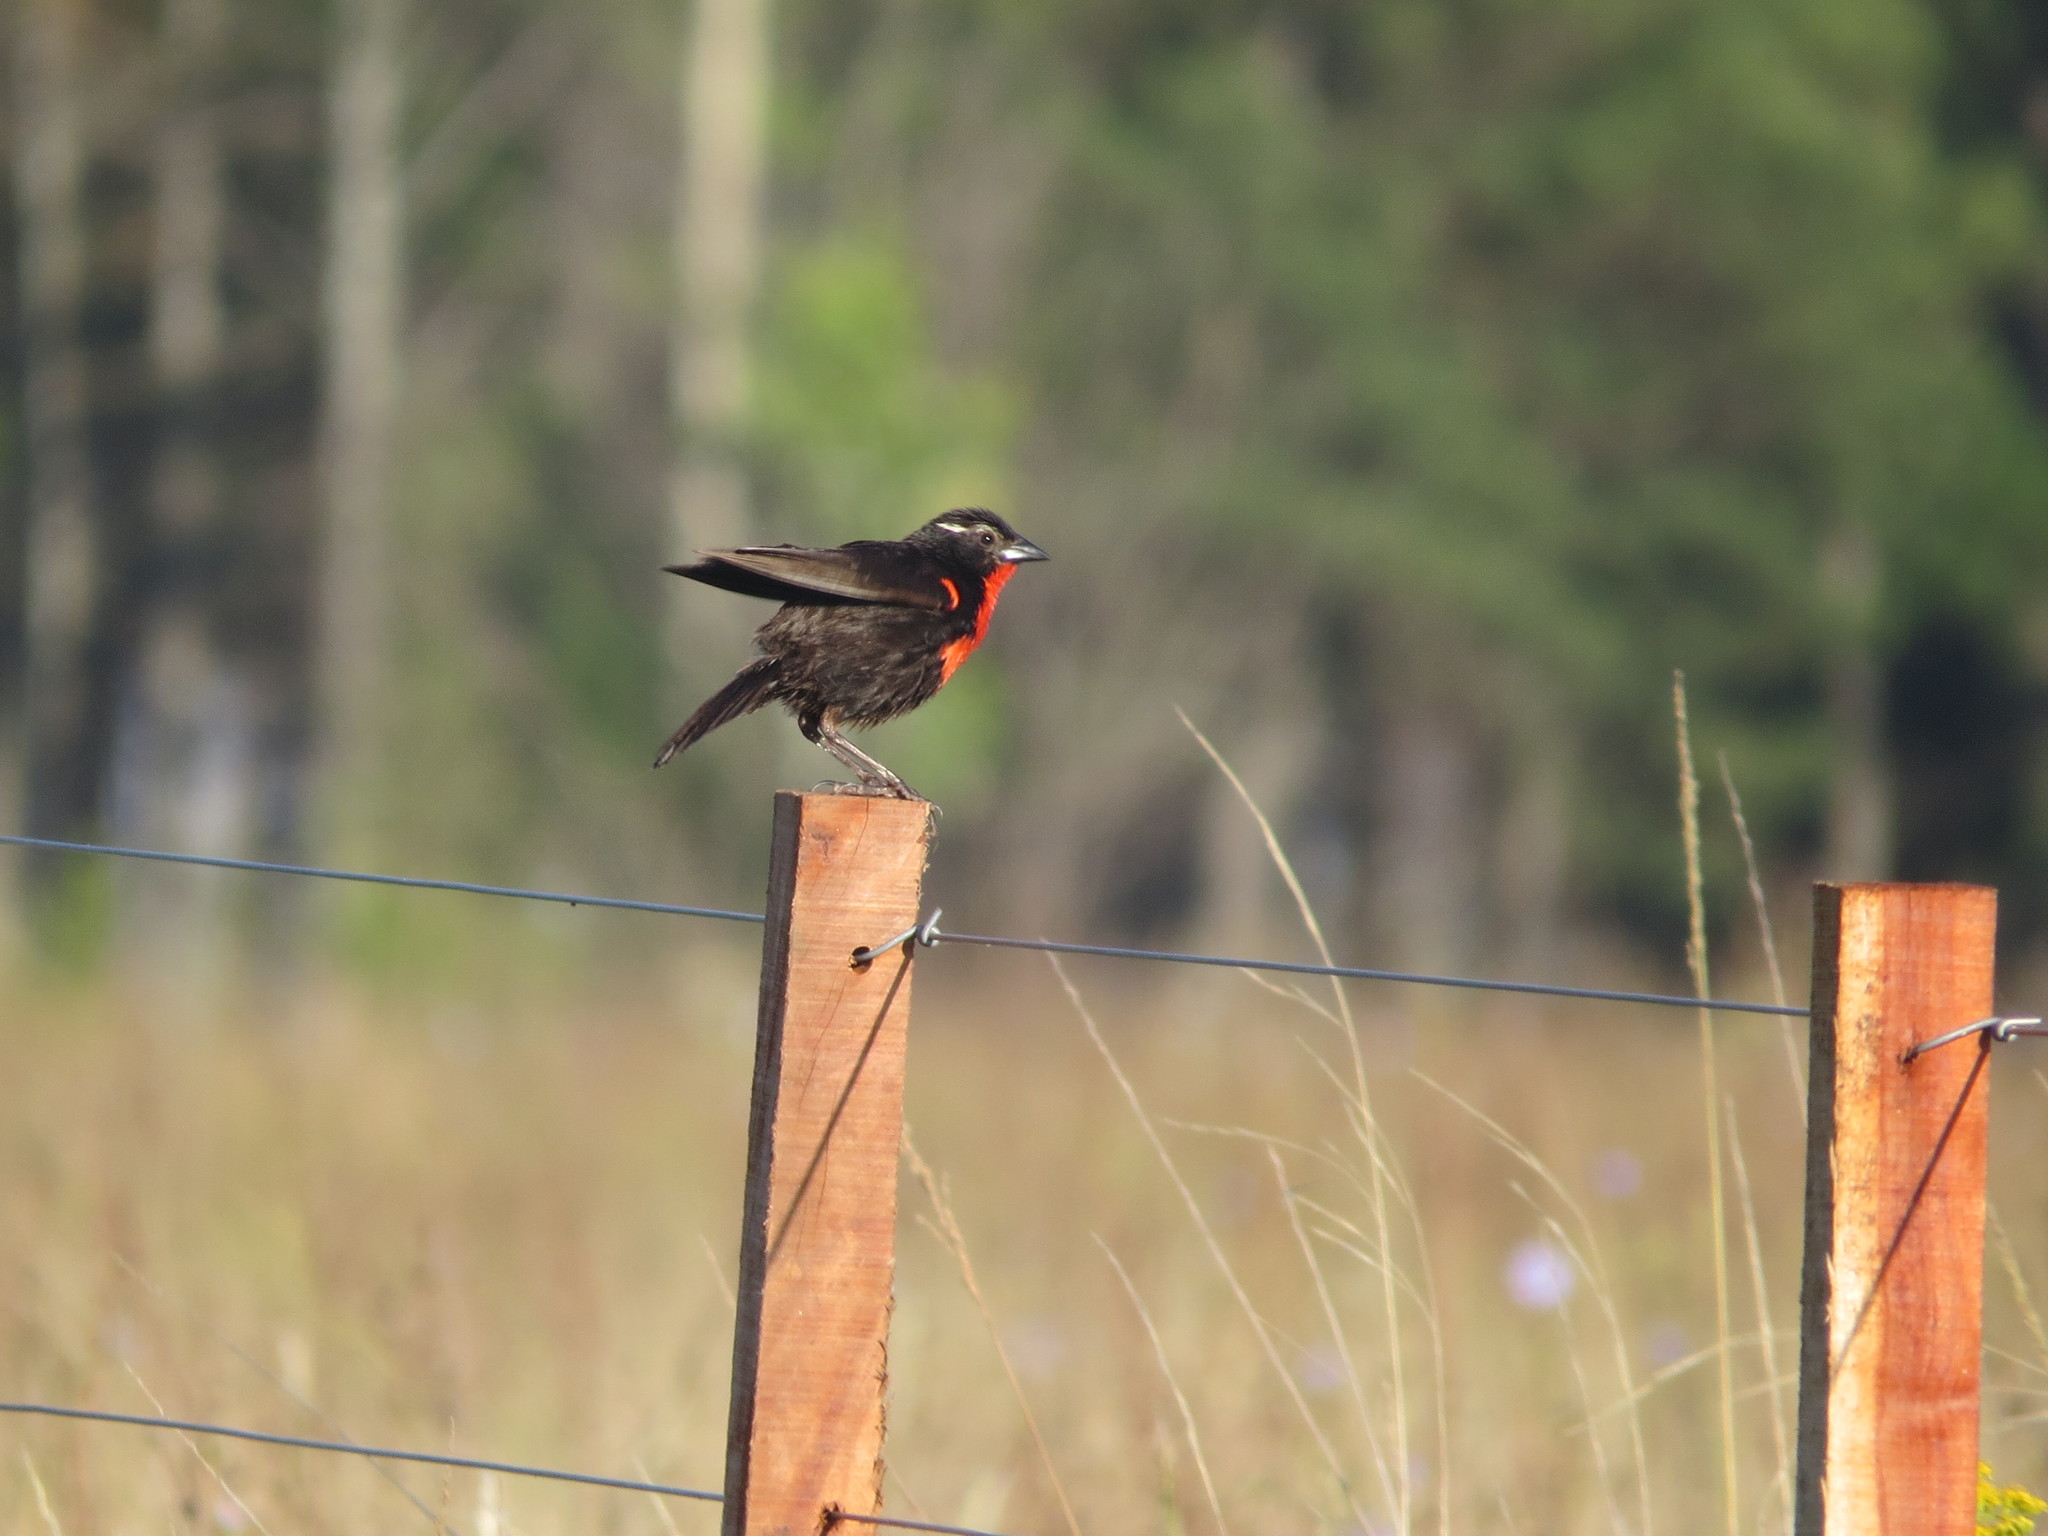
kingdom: Animalia
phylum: Chordata
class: Aves
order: Passeriformes
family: Icteridae
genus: Sturnella
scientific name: Sturnella superciliaris
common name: White-browed blackbird
